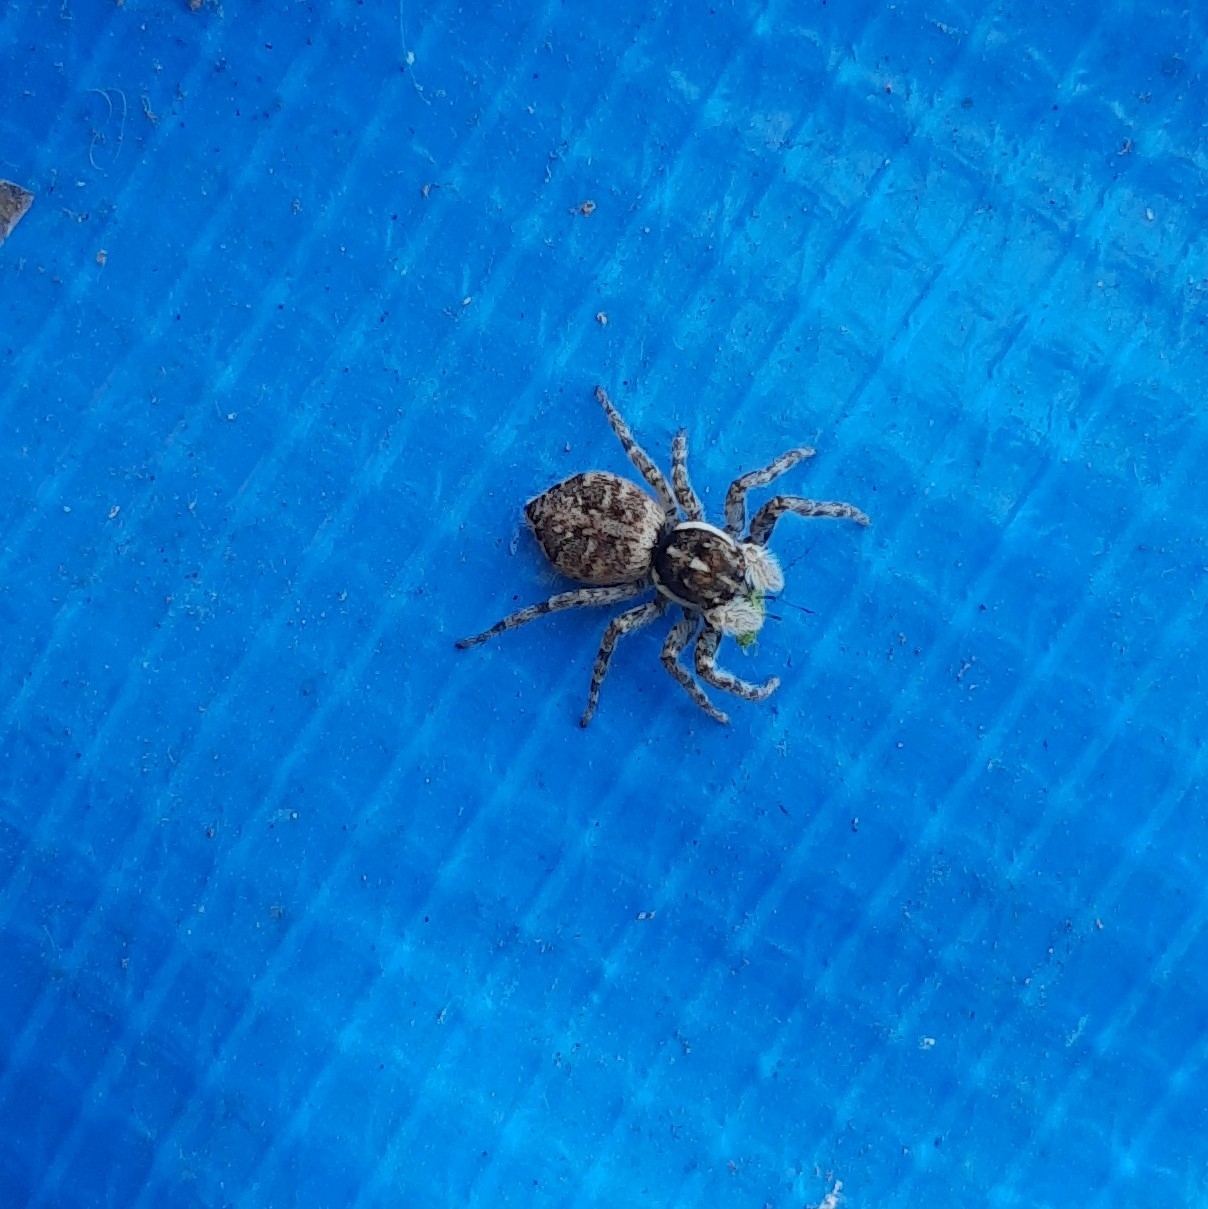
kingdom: Animalia
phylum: Arthropoda
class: Arachnida
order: Araneae
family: Salticidae
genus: Menemerus
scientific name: Menemerus semilimbatus
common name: Jumping spider
